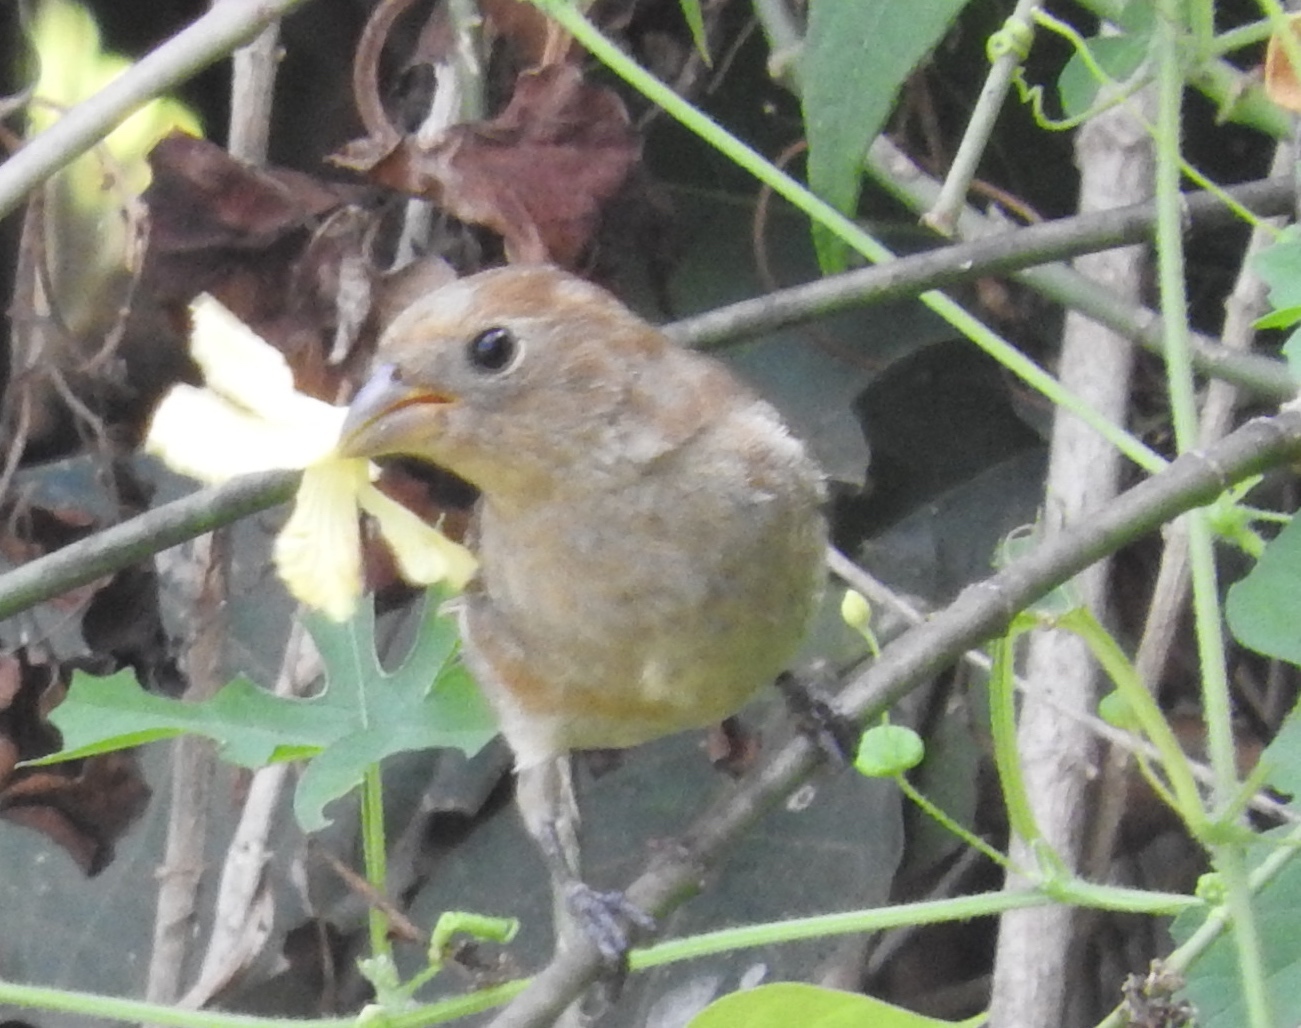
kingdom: Animalia
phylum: Chordata
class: Aves
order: Passeriformes
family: Cardinalidae
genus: Passerina
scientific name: Passerina versicolor
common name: Varied bunting
